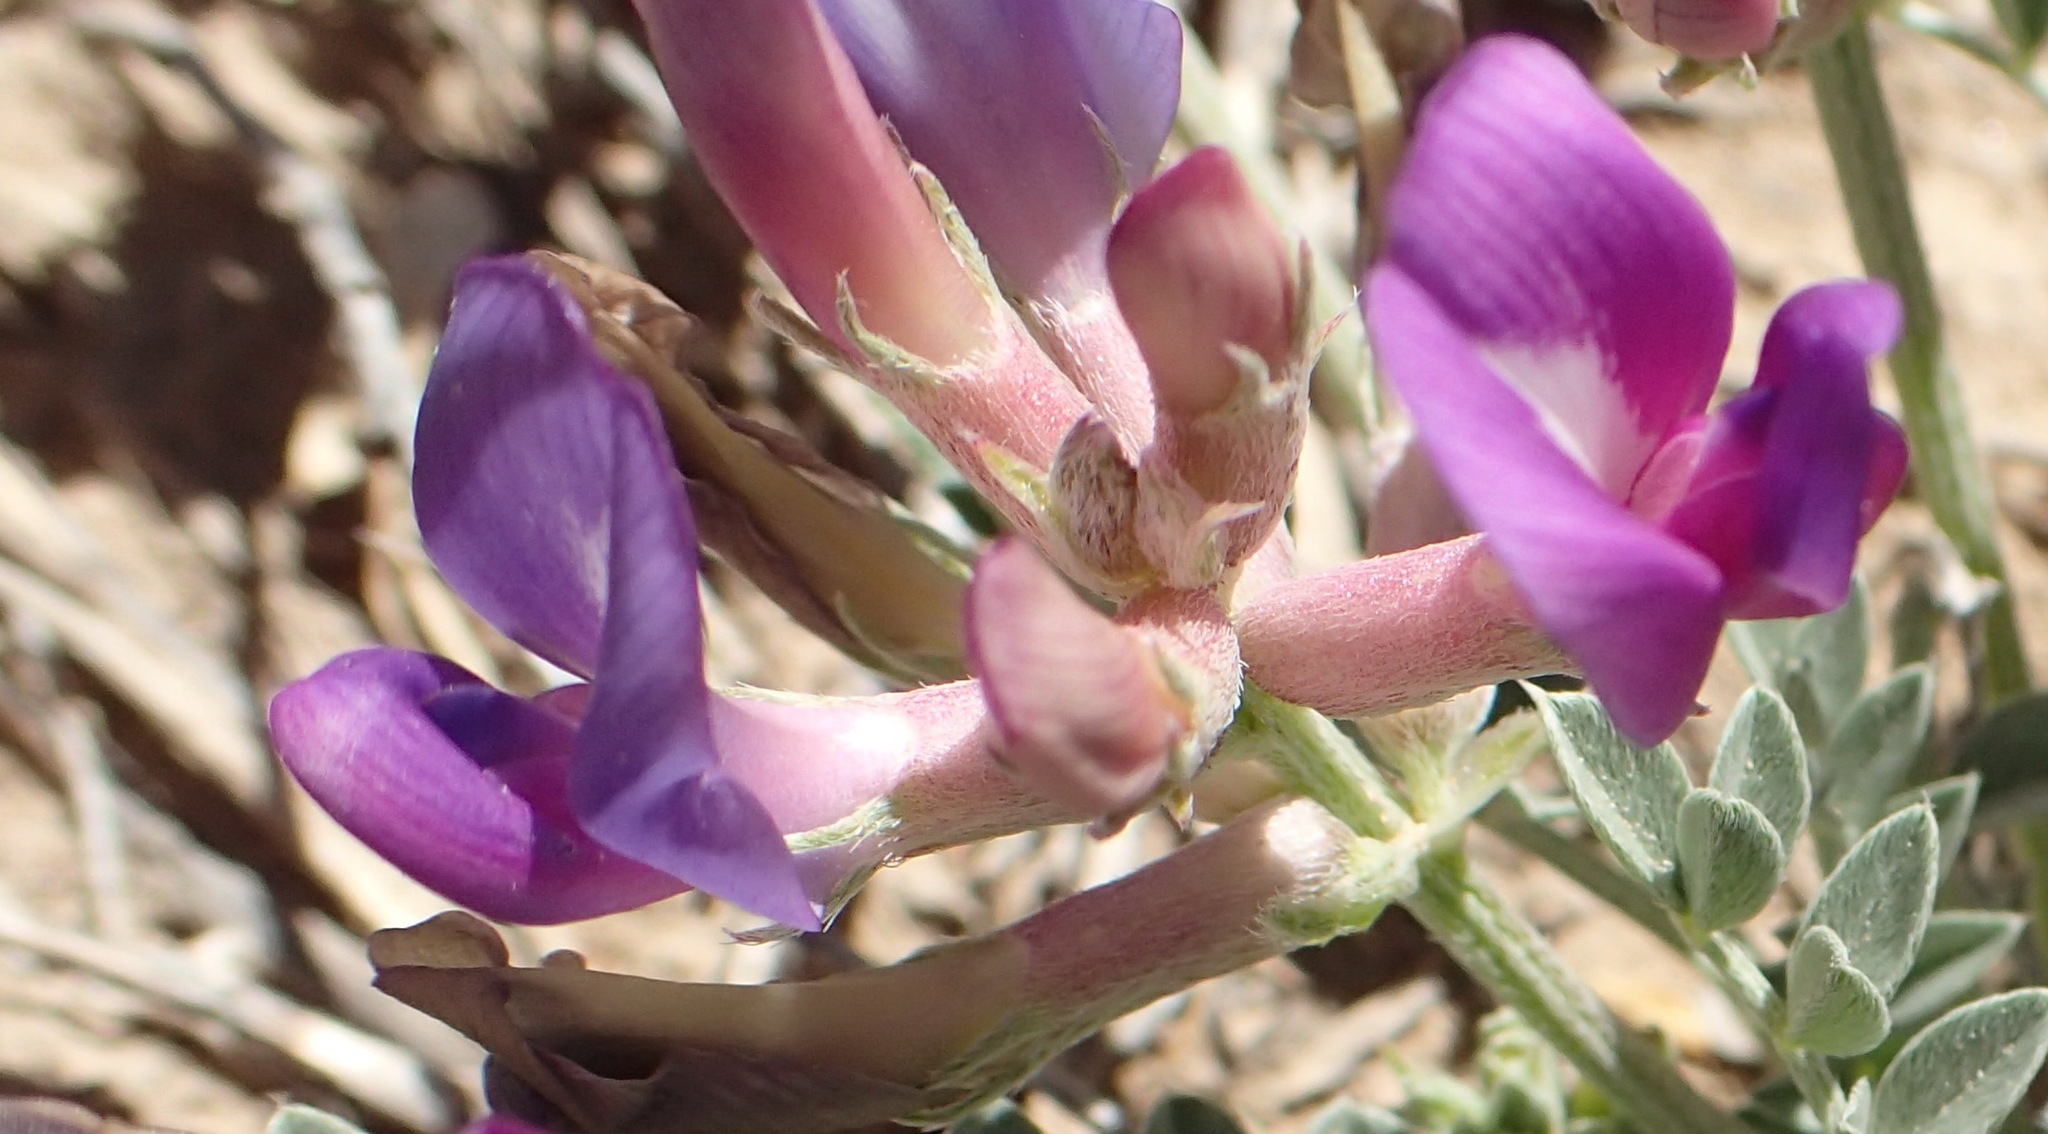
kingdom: Plantae
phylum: Tracheophyta
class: Magnoliopsida
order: Fabales
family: Fabaceae
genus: Astragalus
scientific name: Astragalus missouriensis
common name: Missouri milk-vetch
